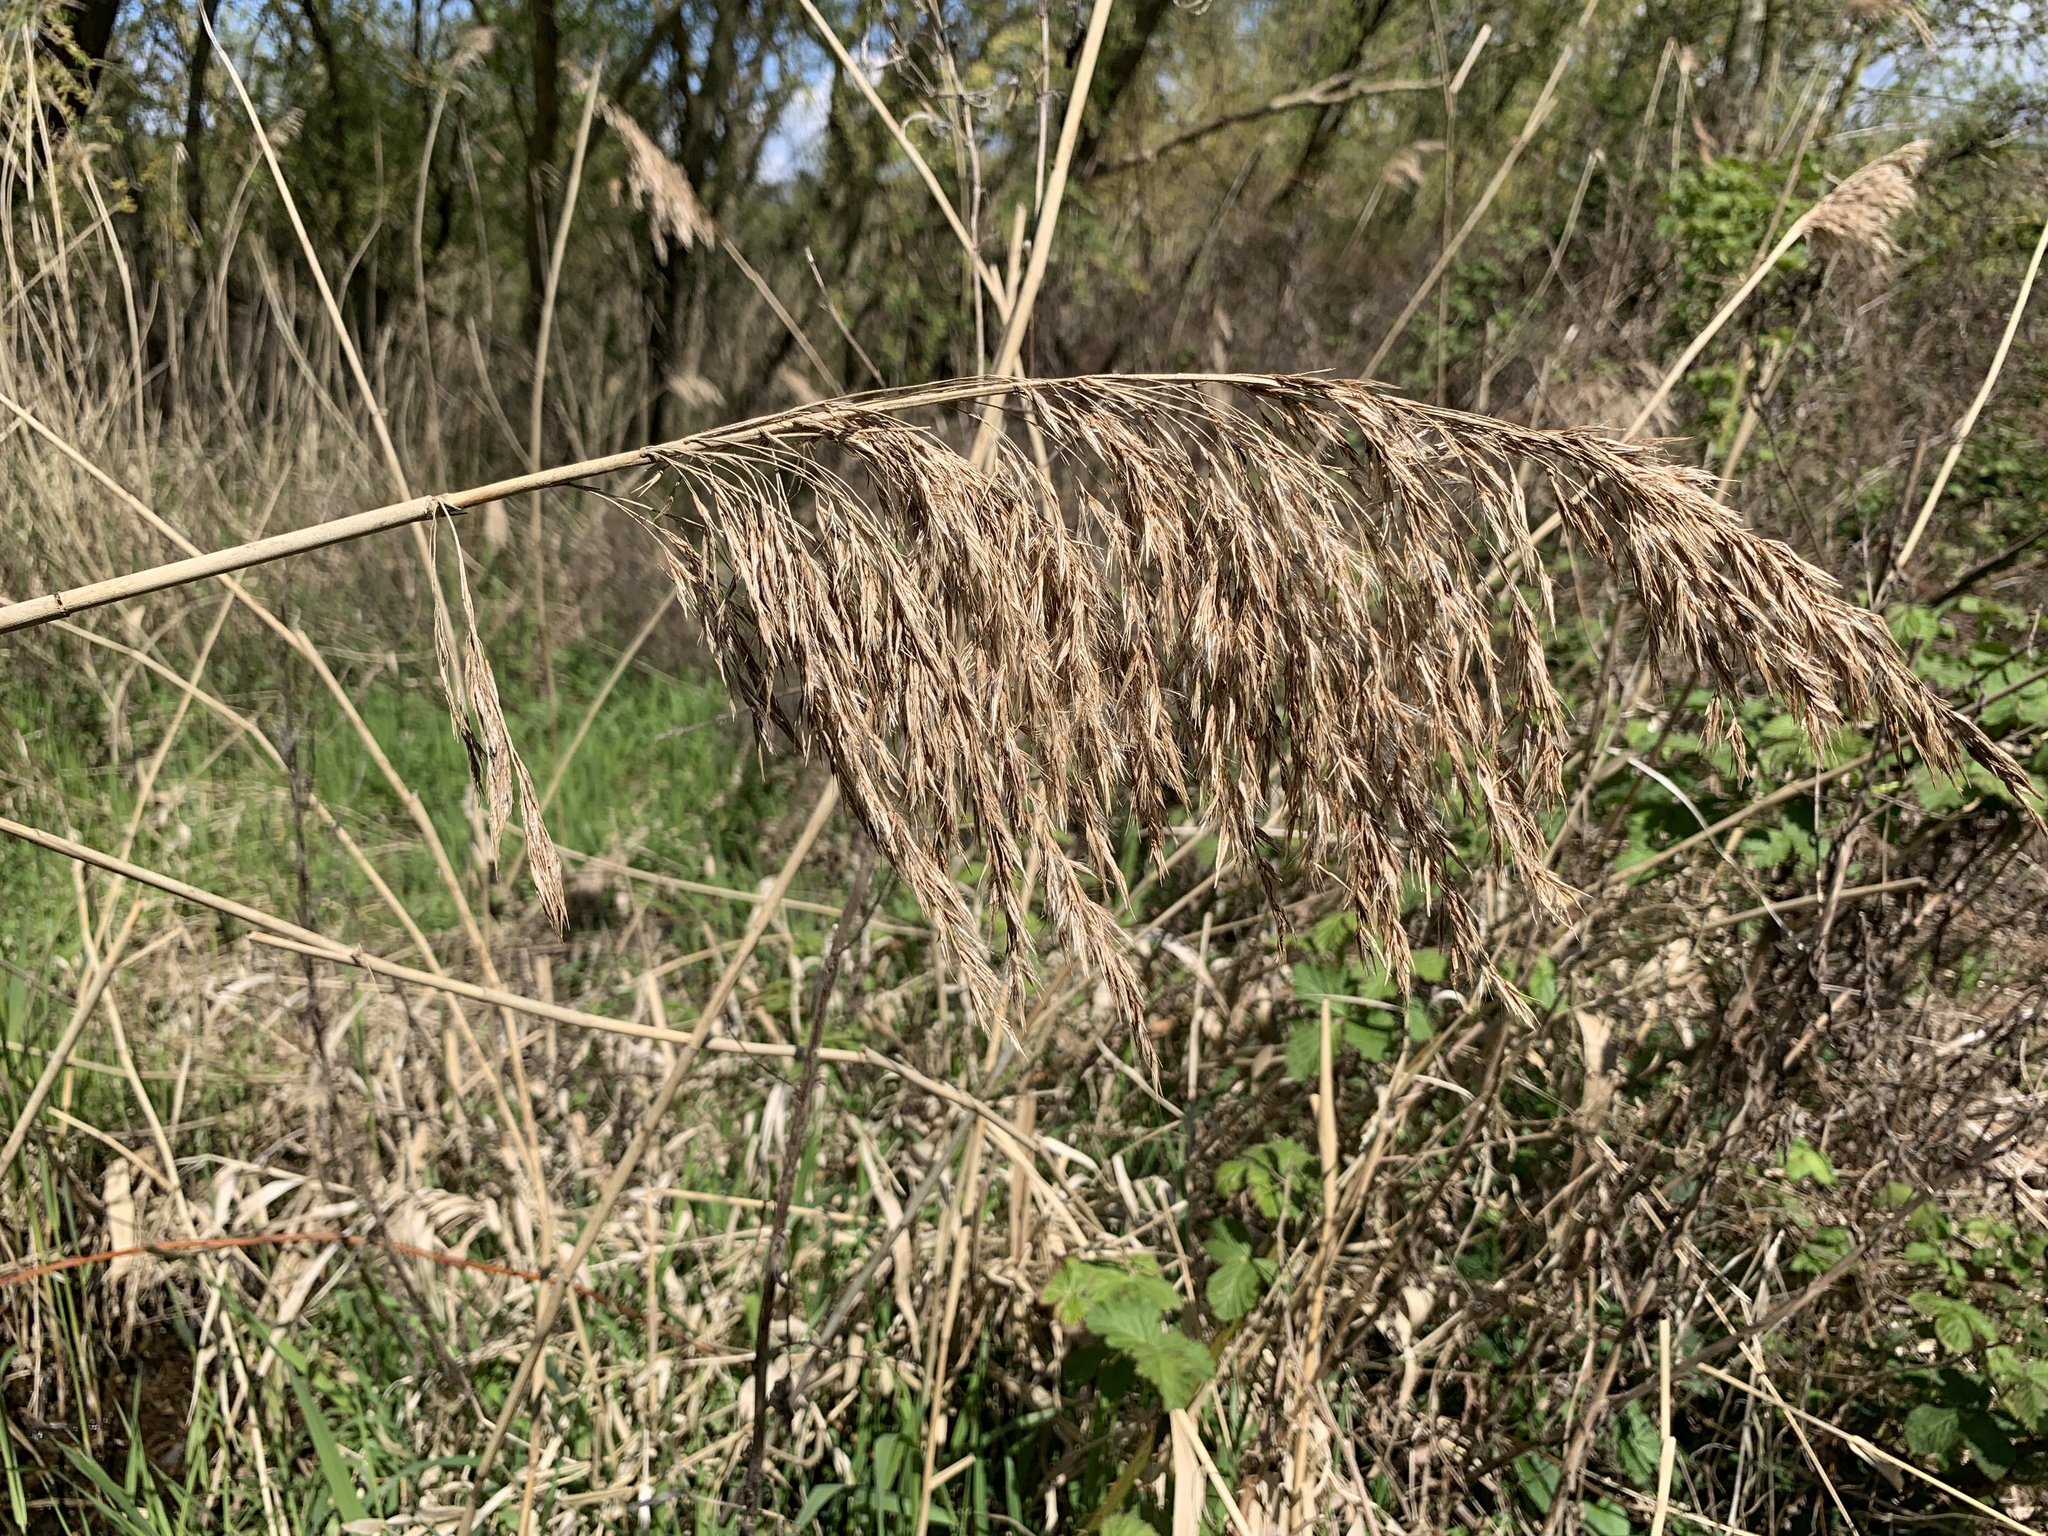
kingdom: Plantae
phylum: Tracheophyta
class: Liliopsida
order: Poales
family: Poaceae
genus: Phragmites
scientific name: Phragmites australis
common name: Common reed
